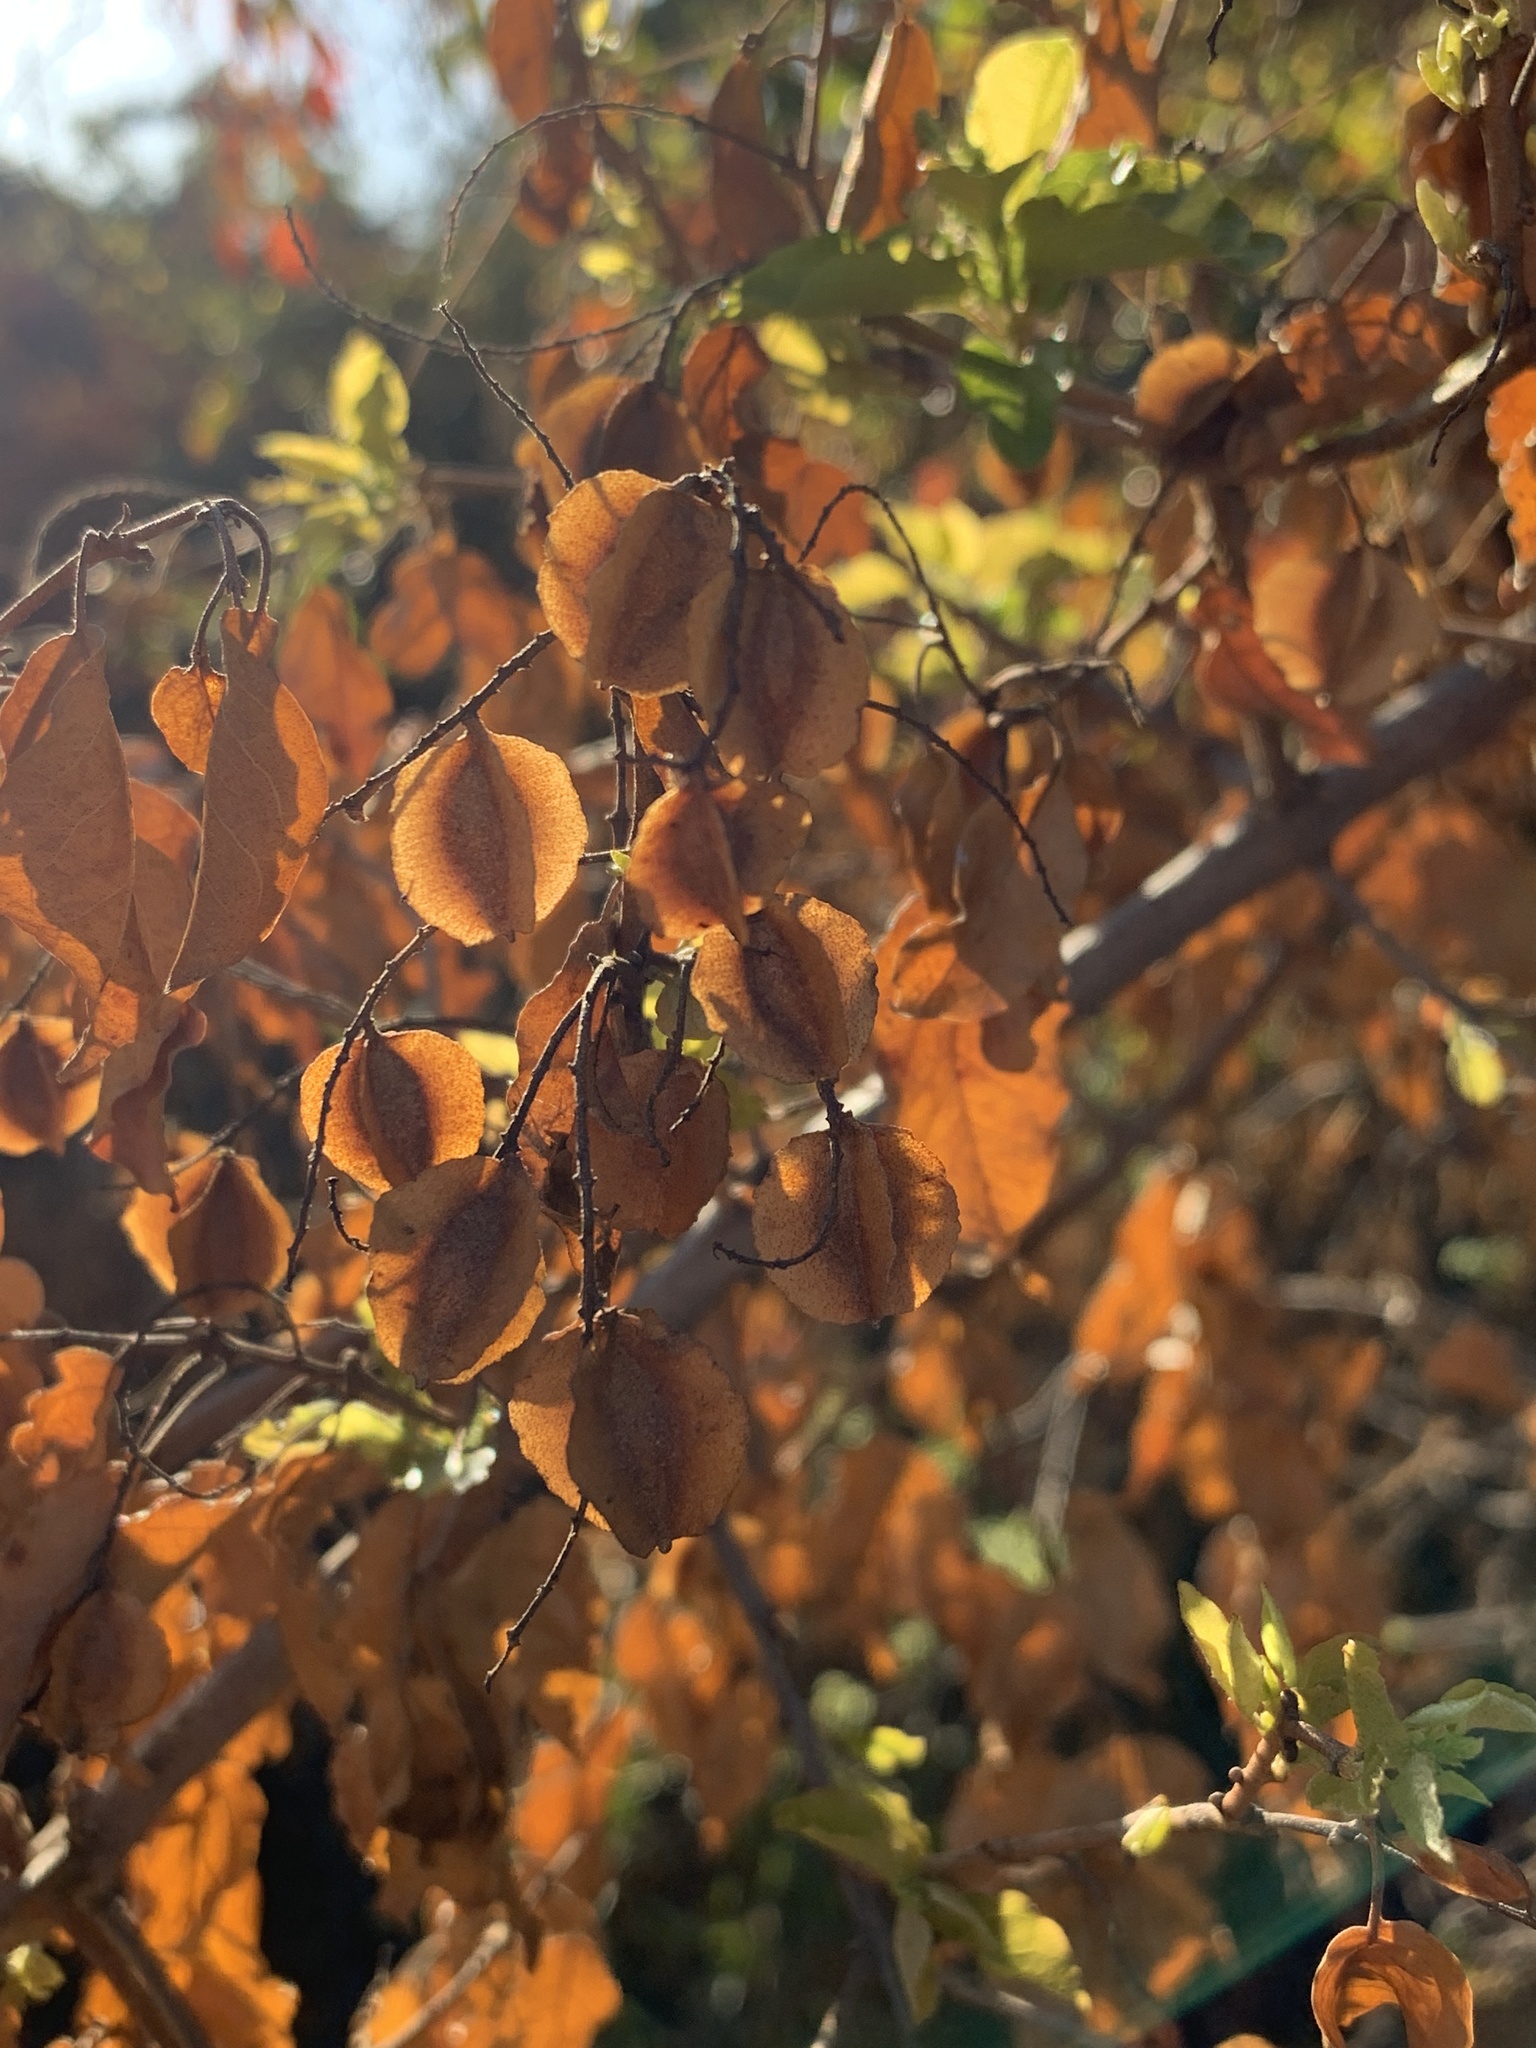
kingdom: Plantae
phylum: Tracheophyta
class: Magnoliopsida
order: Myrtales
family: Combretaceae
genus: Combretum
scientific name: Combretum molle
